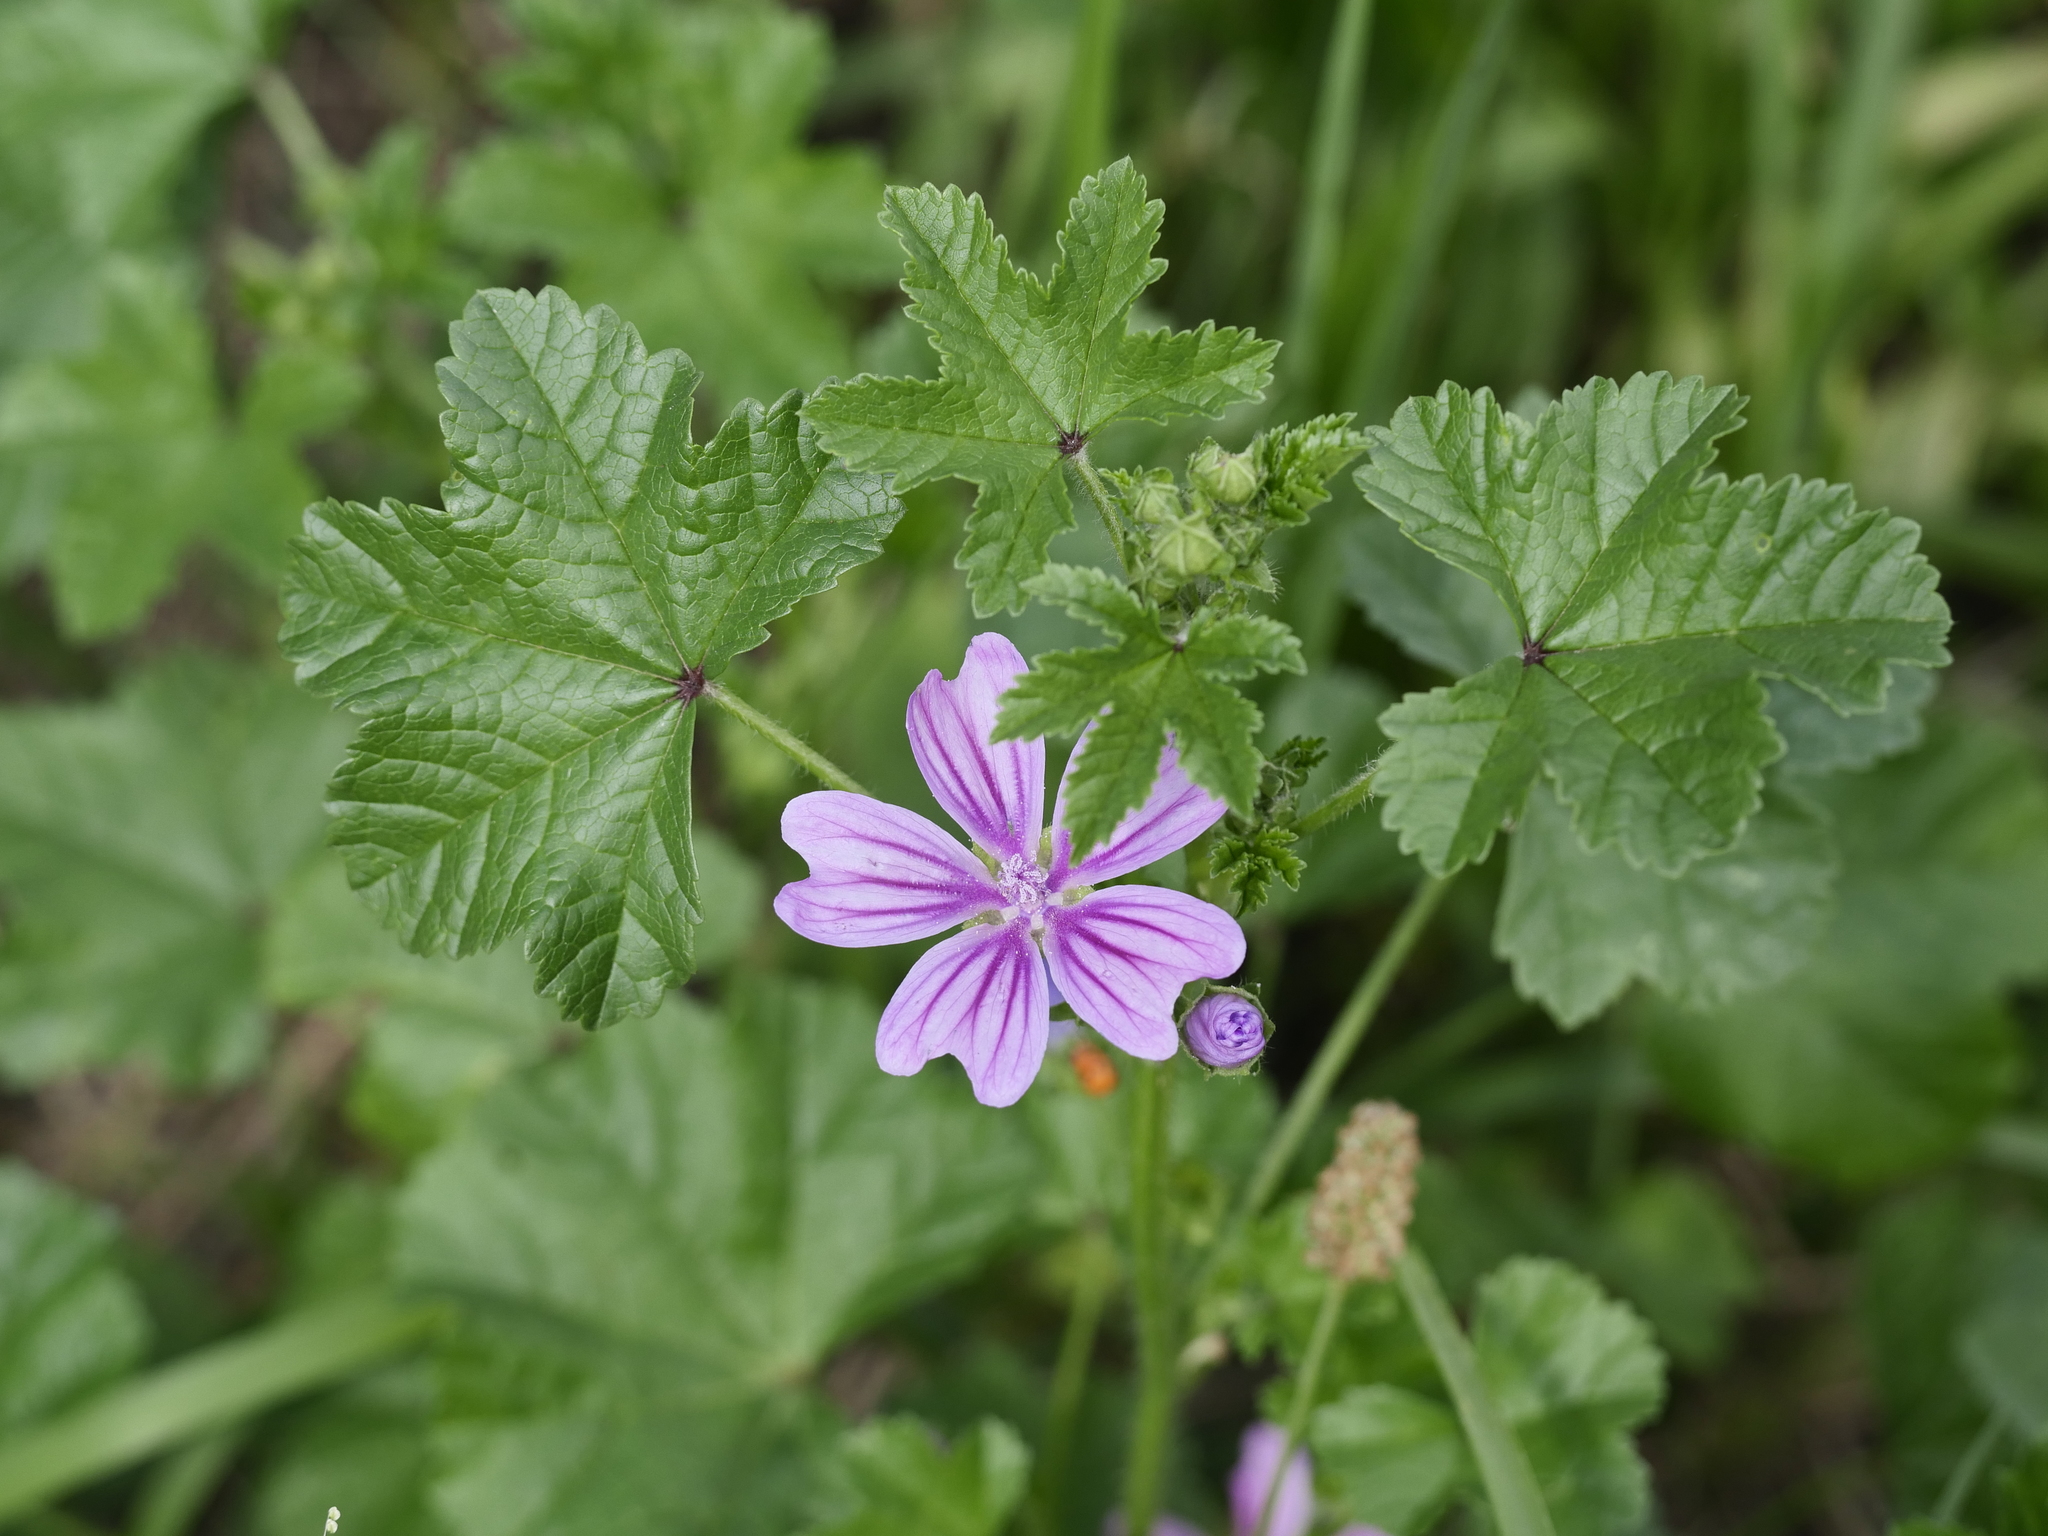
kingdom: Plantae
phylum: Tracheophyta
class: Magnoliopsida
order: Malvales
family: Malvaceae
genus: Malva
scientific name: Malva sylvestris
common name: Common mallow
